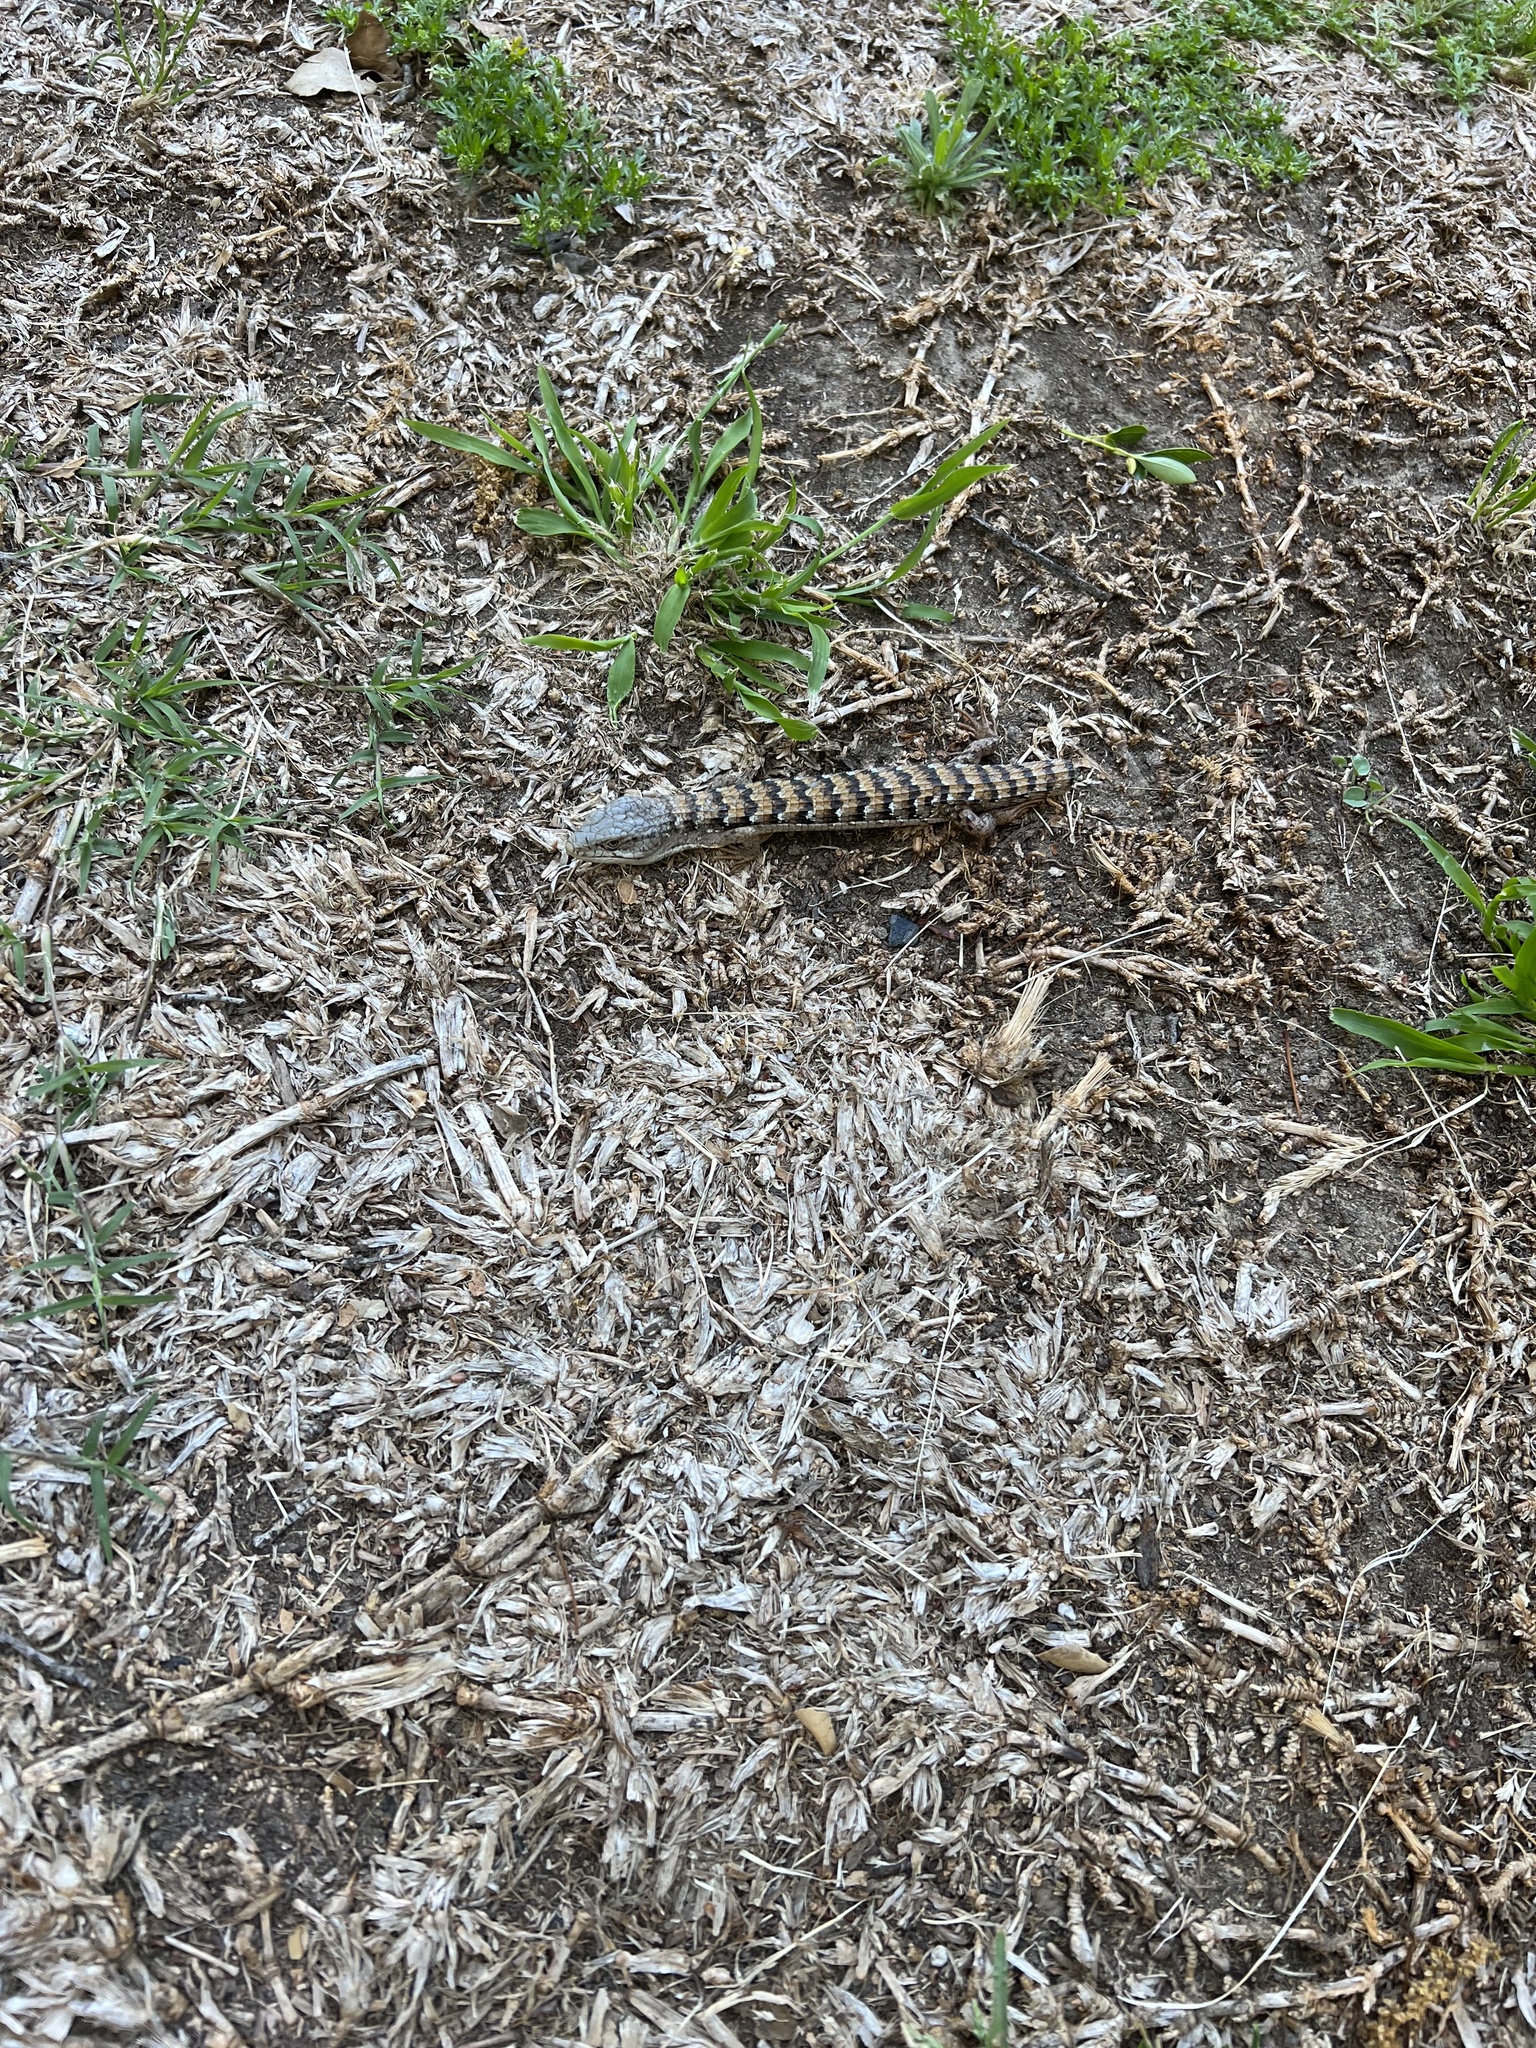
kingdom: Animalia
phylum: Chordata
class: Squamata
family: Anguidae
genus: Elgaria
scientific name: Elgaria multicarinata
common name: Southern alligator lizard
